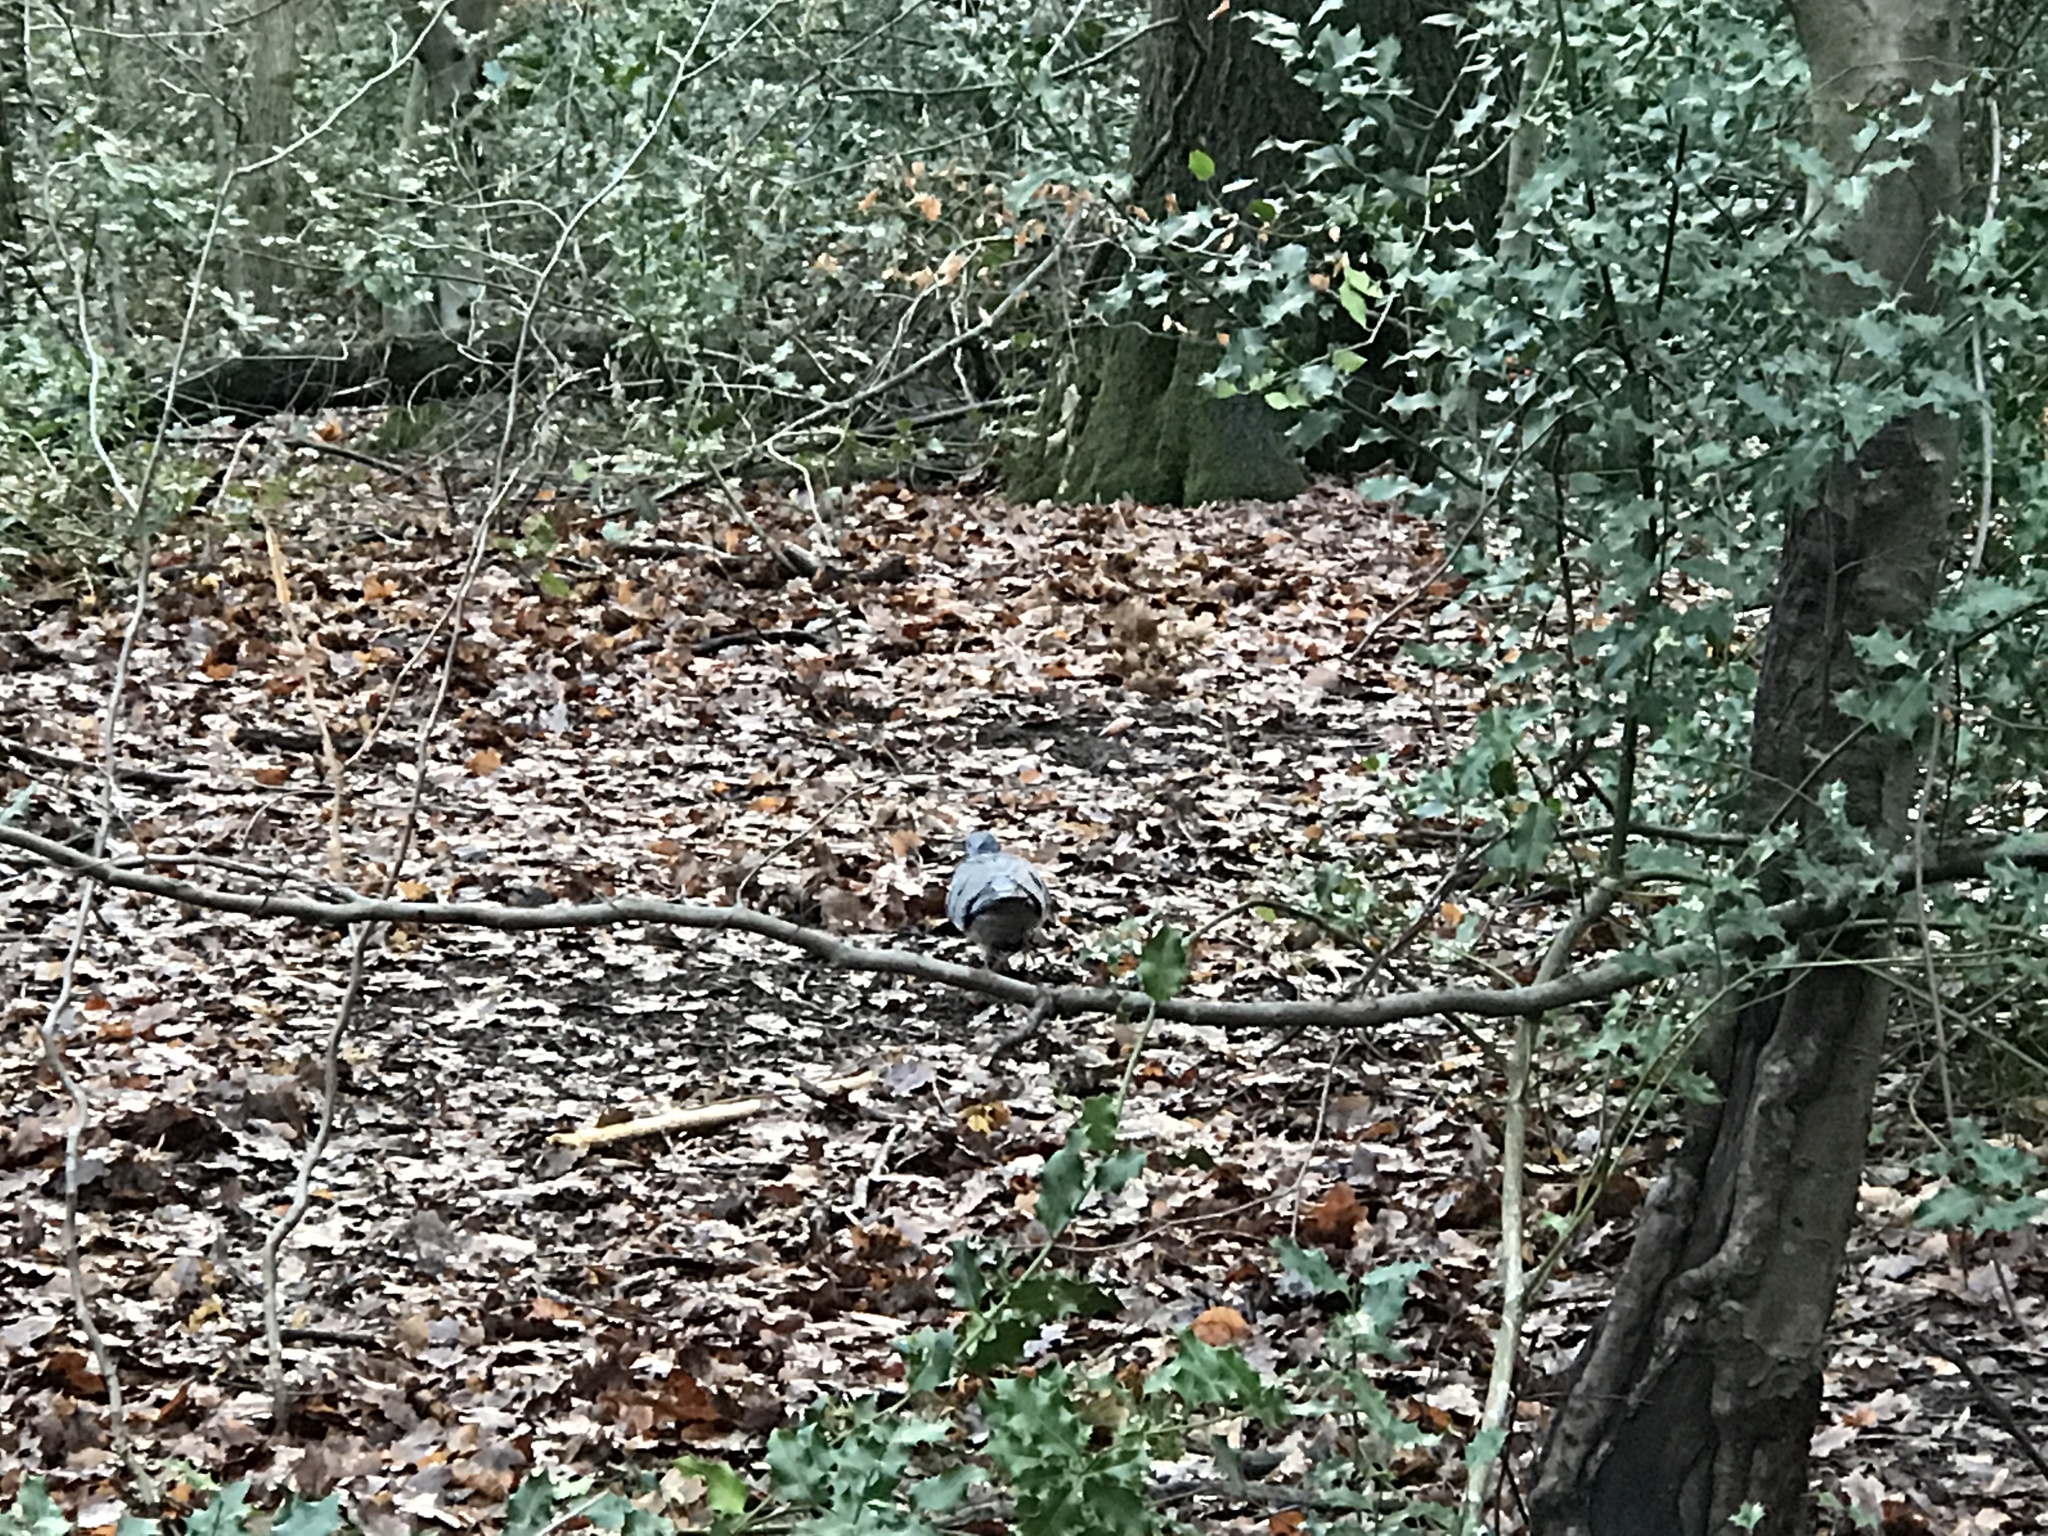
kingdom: Animalia
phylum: Chordata
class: Aves
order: Columbiformes
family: Columbidae
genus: Columba
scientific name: Columba palumbus
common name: Common wood pigeon
